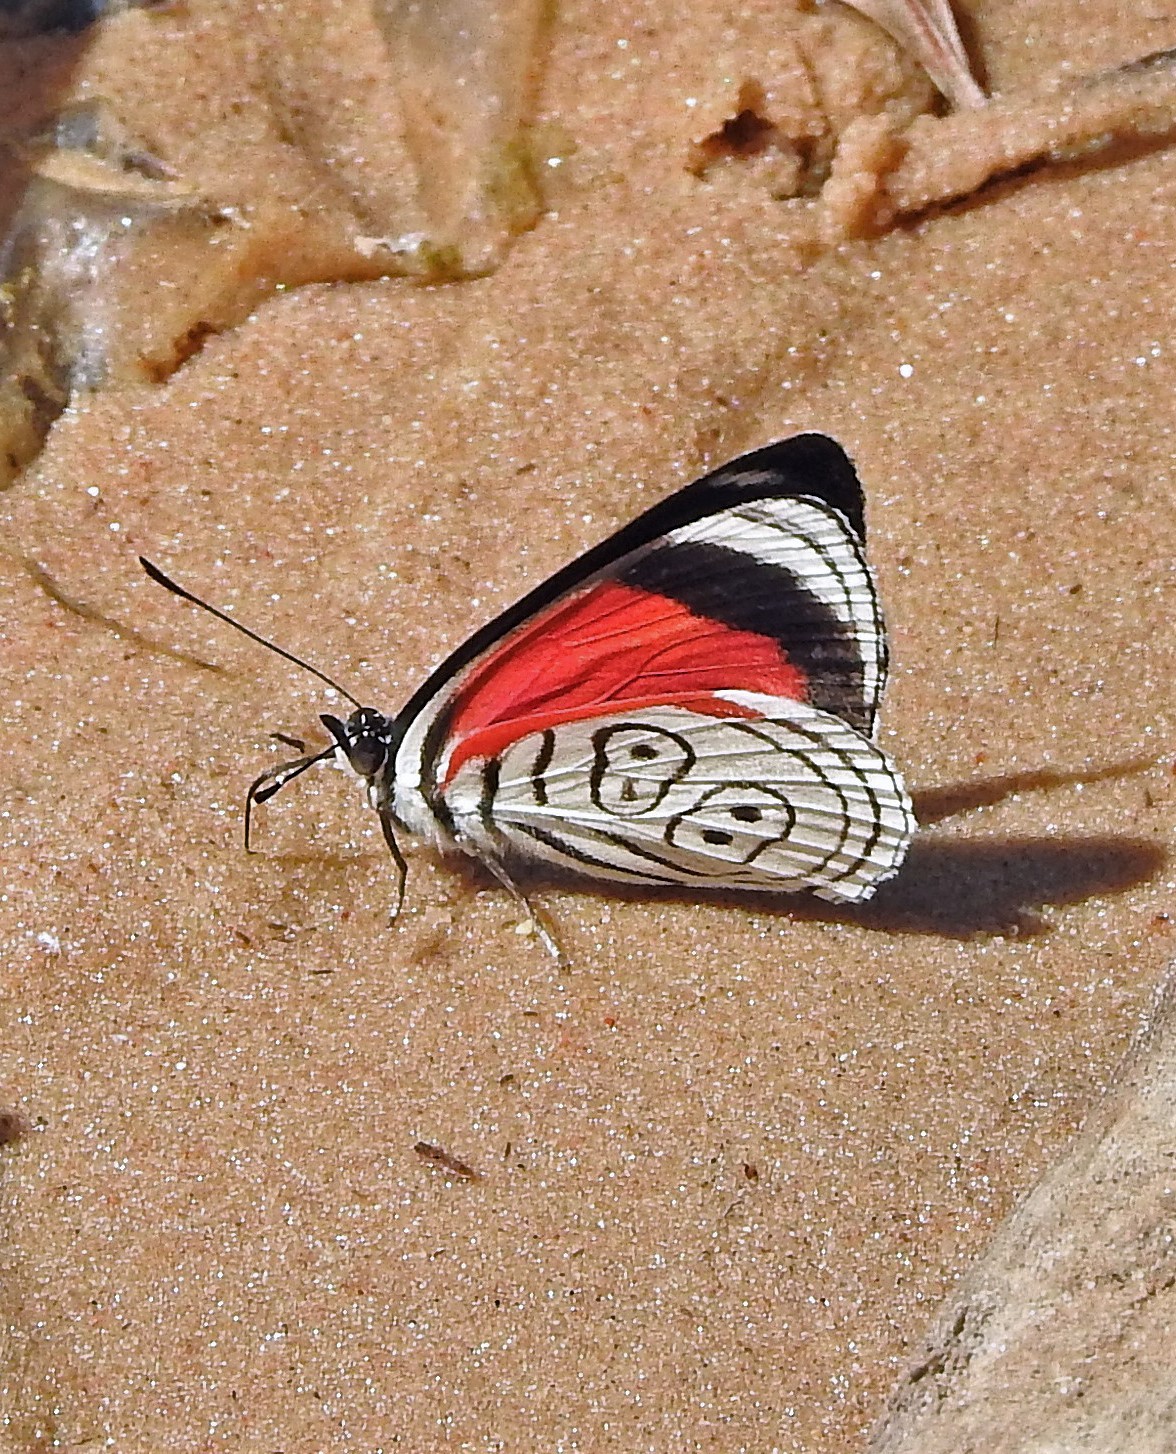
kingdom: Animalia
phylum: Arthropoda
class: Insecta
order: Lepidoptera
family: Nymphalidae
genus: Diaethria
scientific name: Diaethria clymena
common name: Widespread eighty-eight
